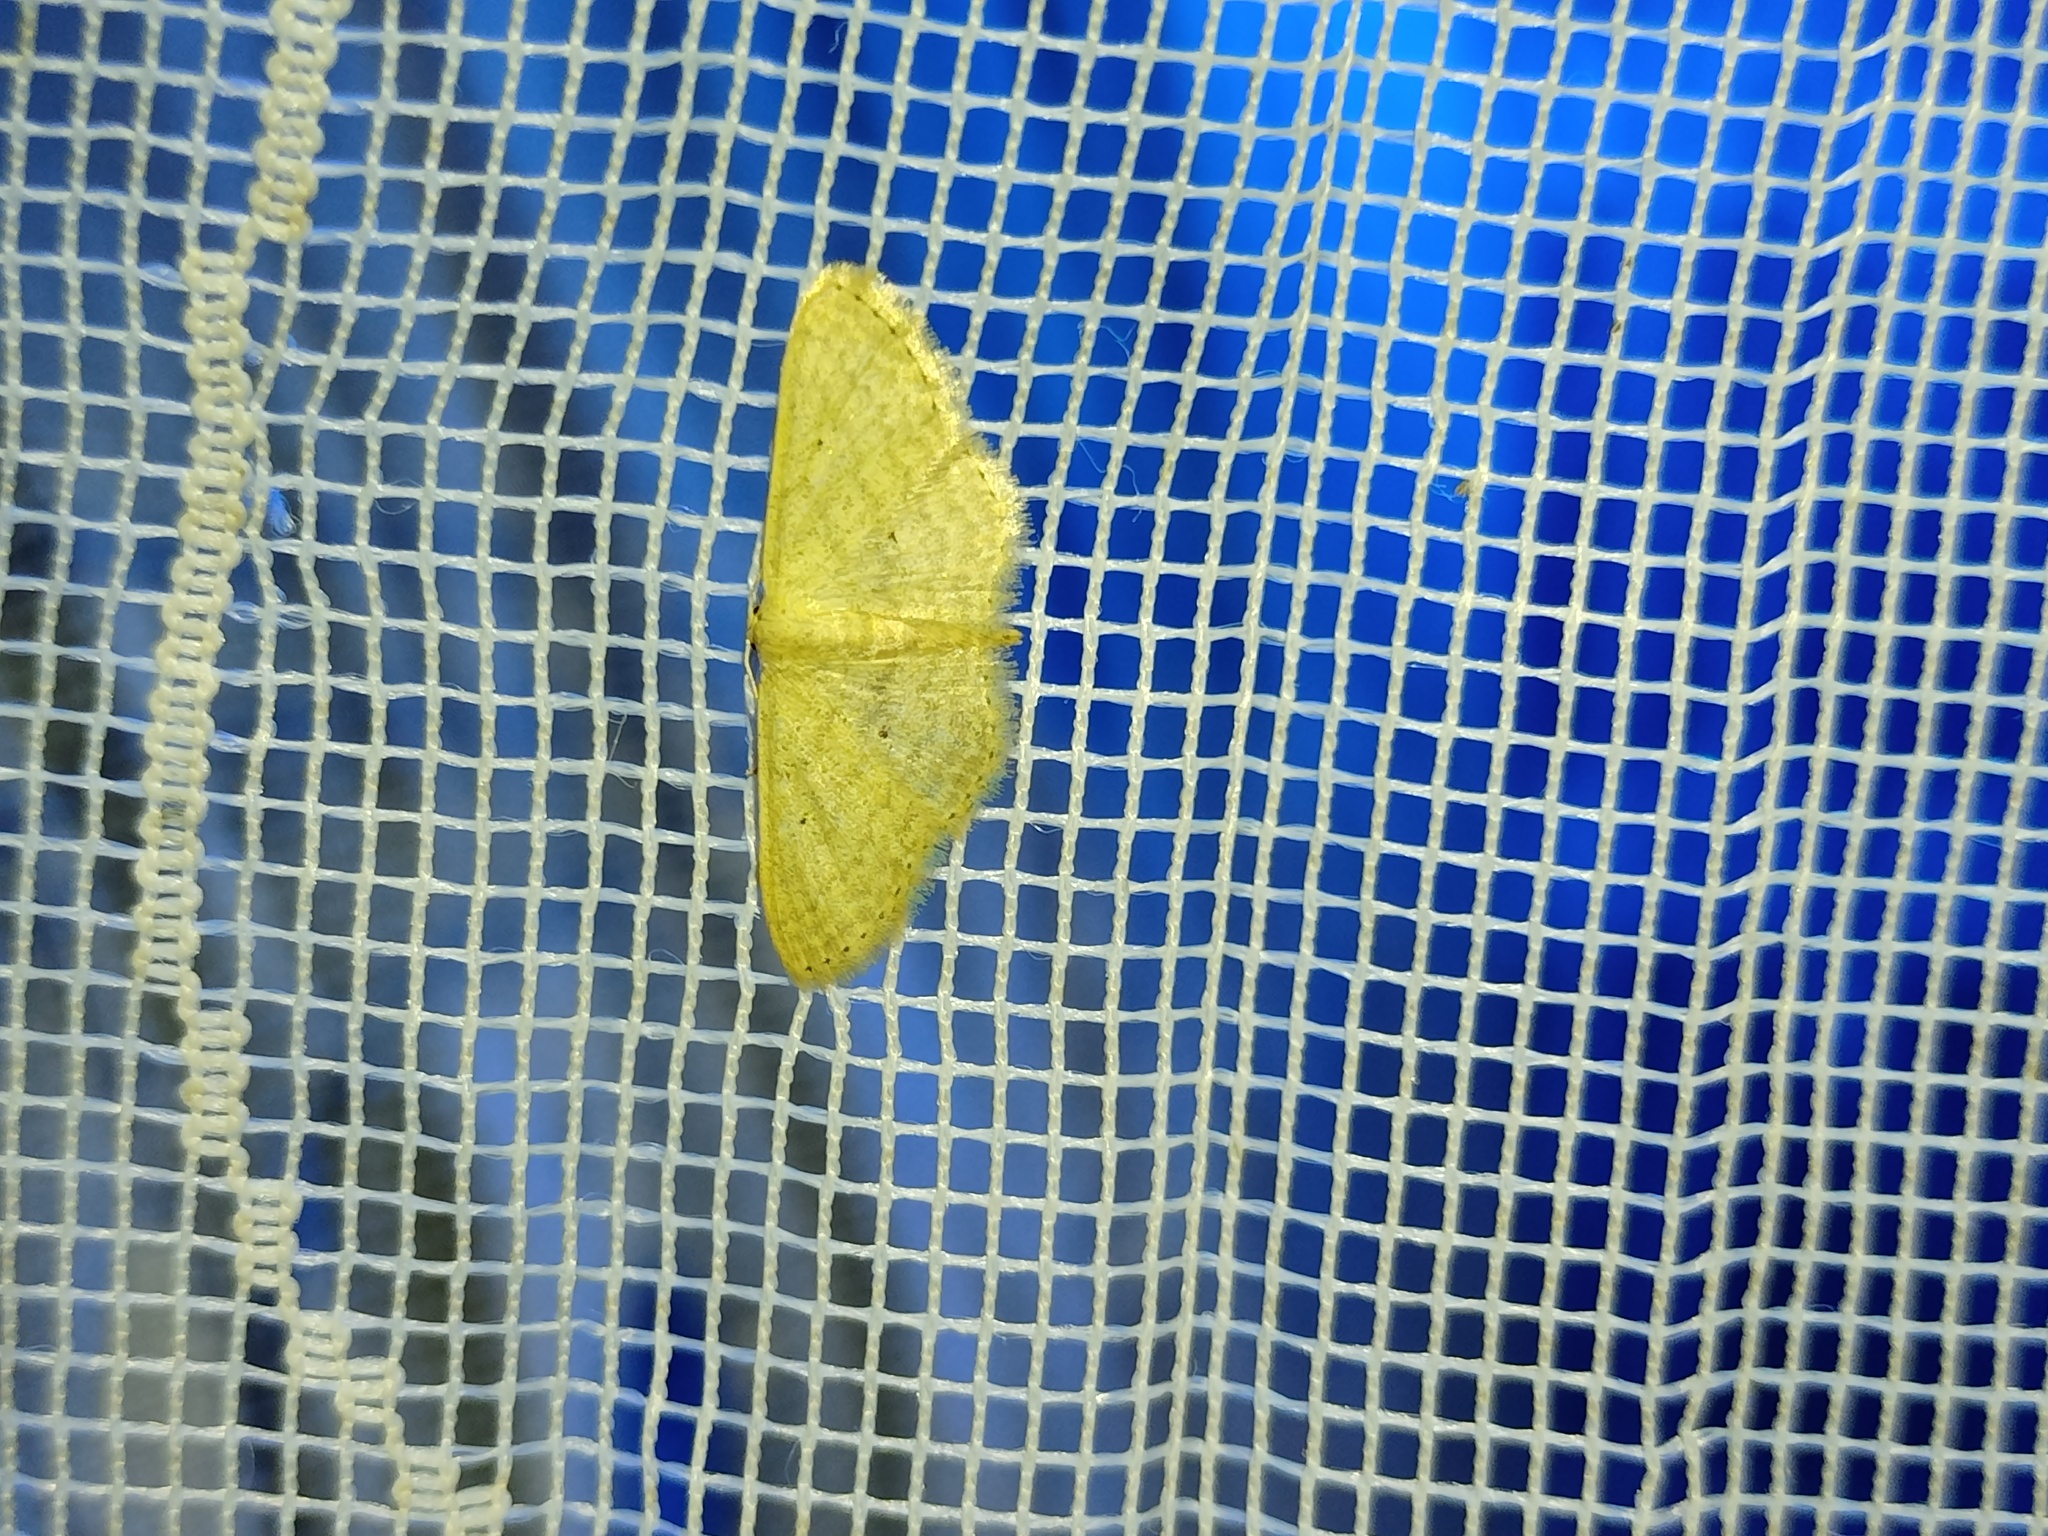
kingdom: Animalia
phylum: Arthropoda
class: Insecta
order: Lepidoptera
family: Geometridae
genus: Scopula
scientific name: Scopula minorata
